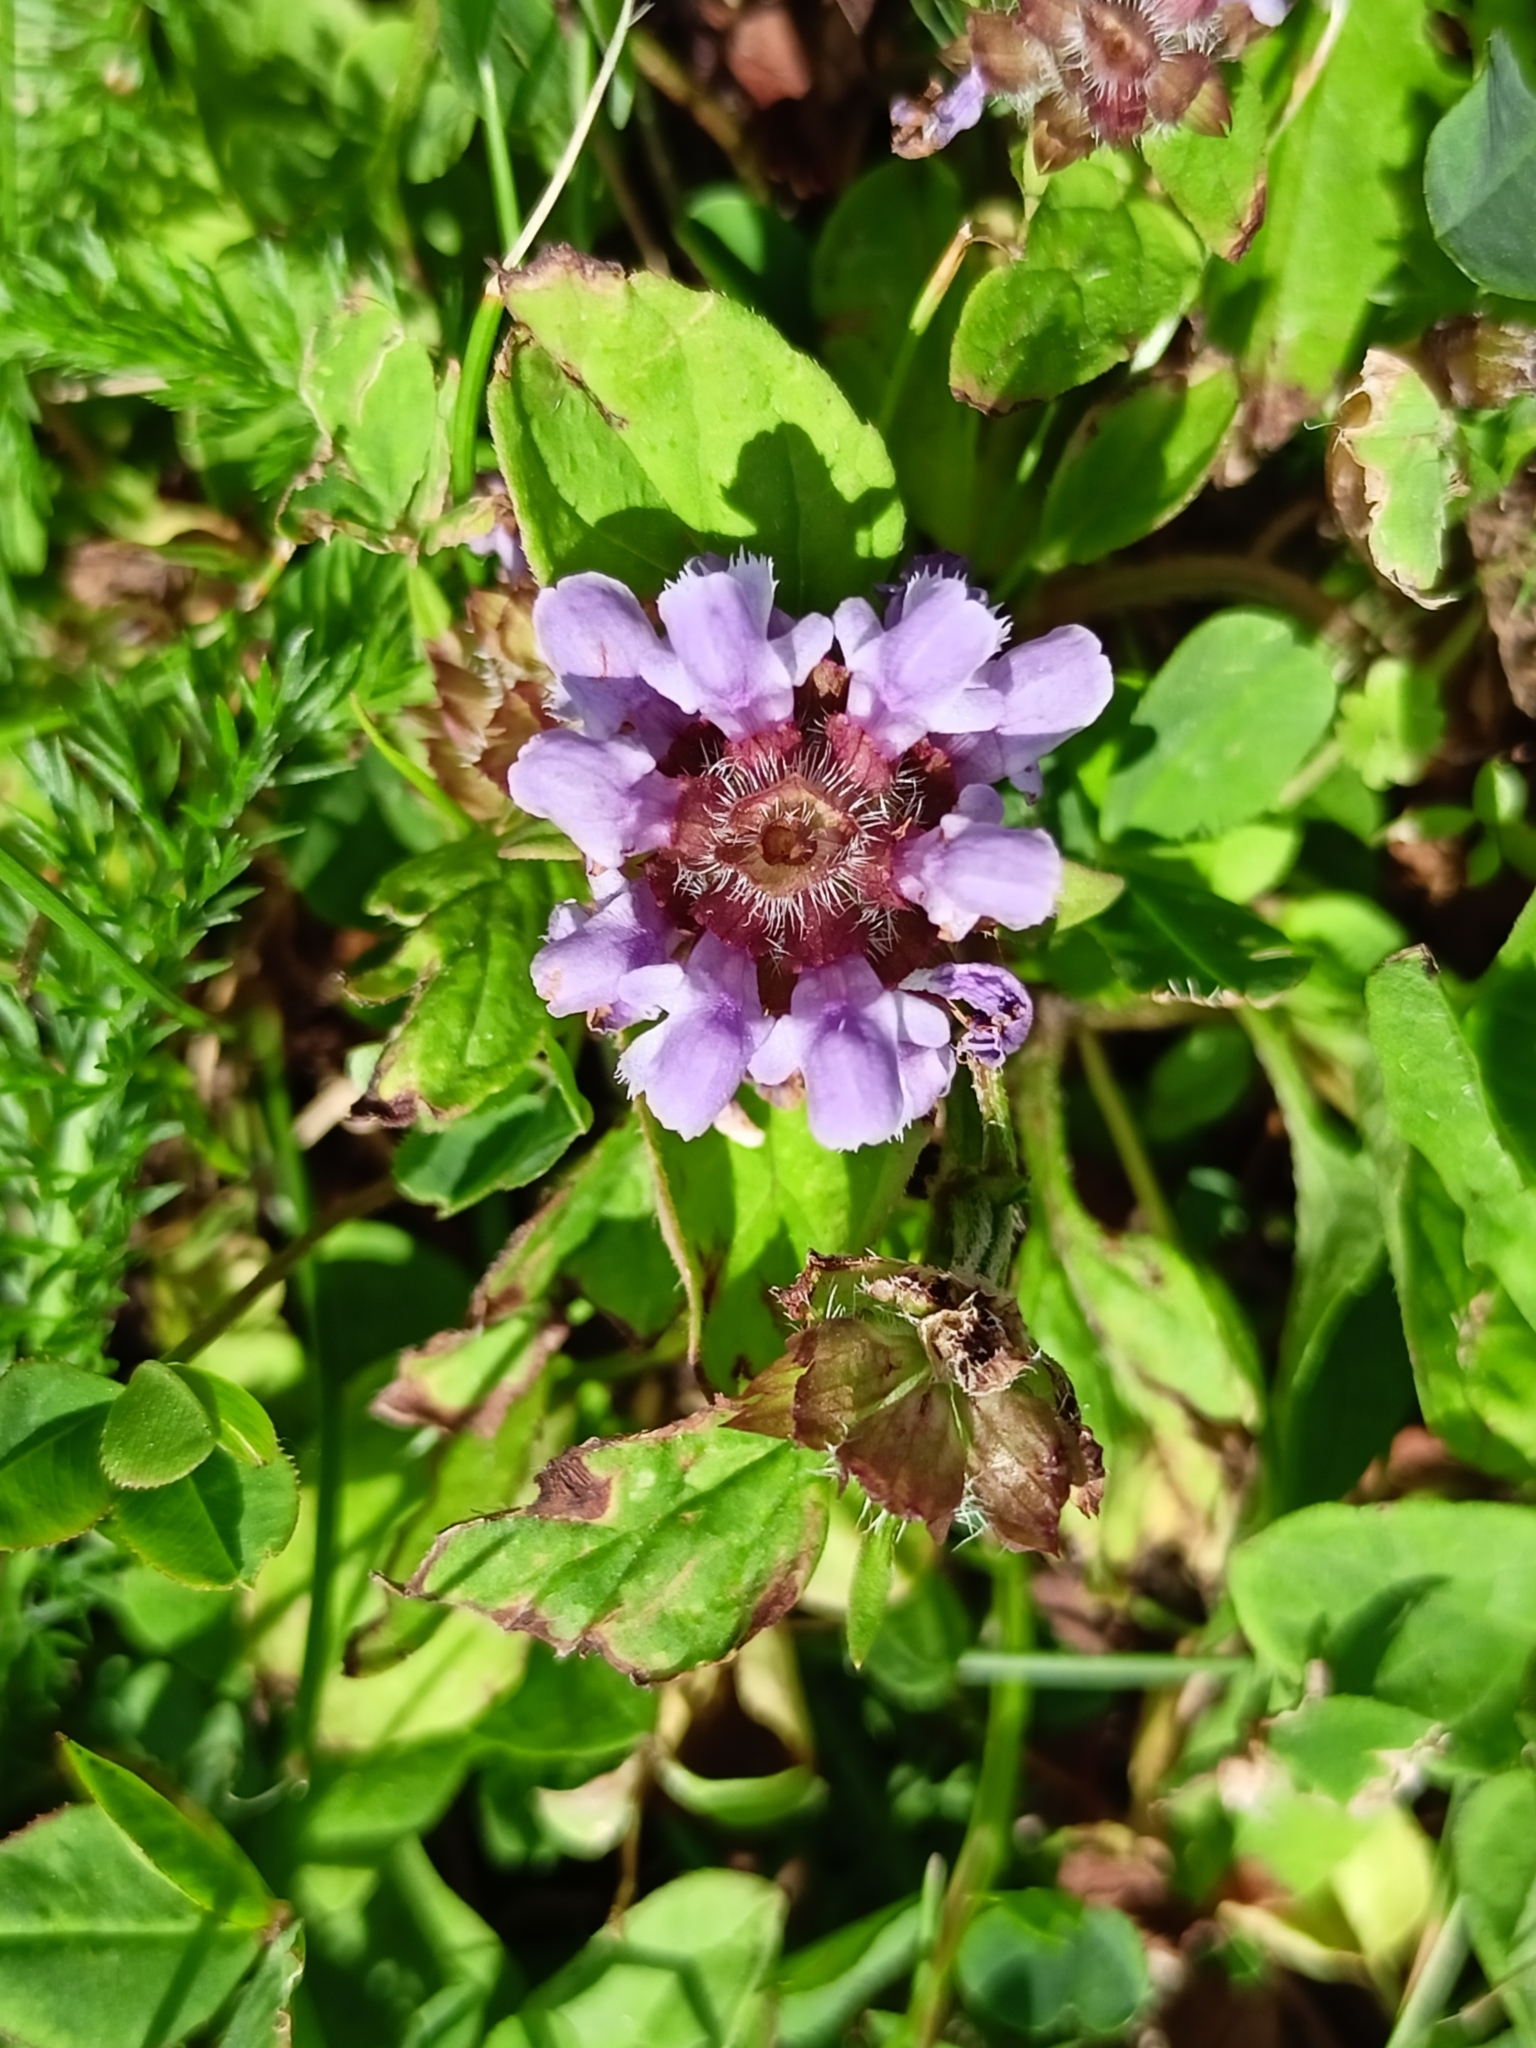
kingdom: Plantae
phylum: Tracheophyta
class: Magnoliopsida
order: Lamiales
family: Lamiaceae
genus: Prunella
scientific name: Prunella vulgaris
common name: Heal-all
